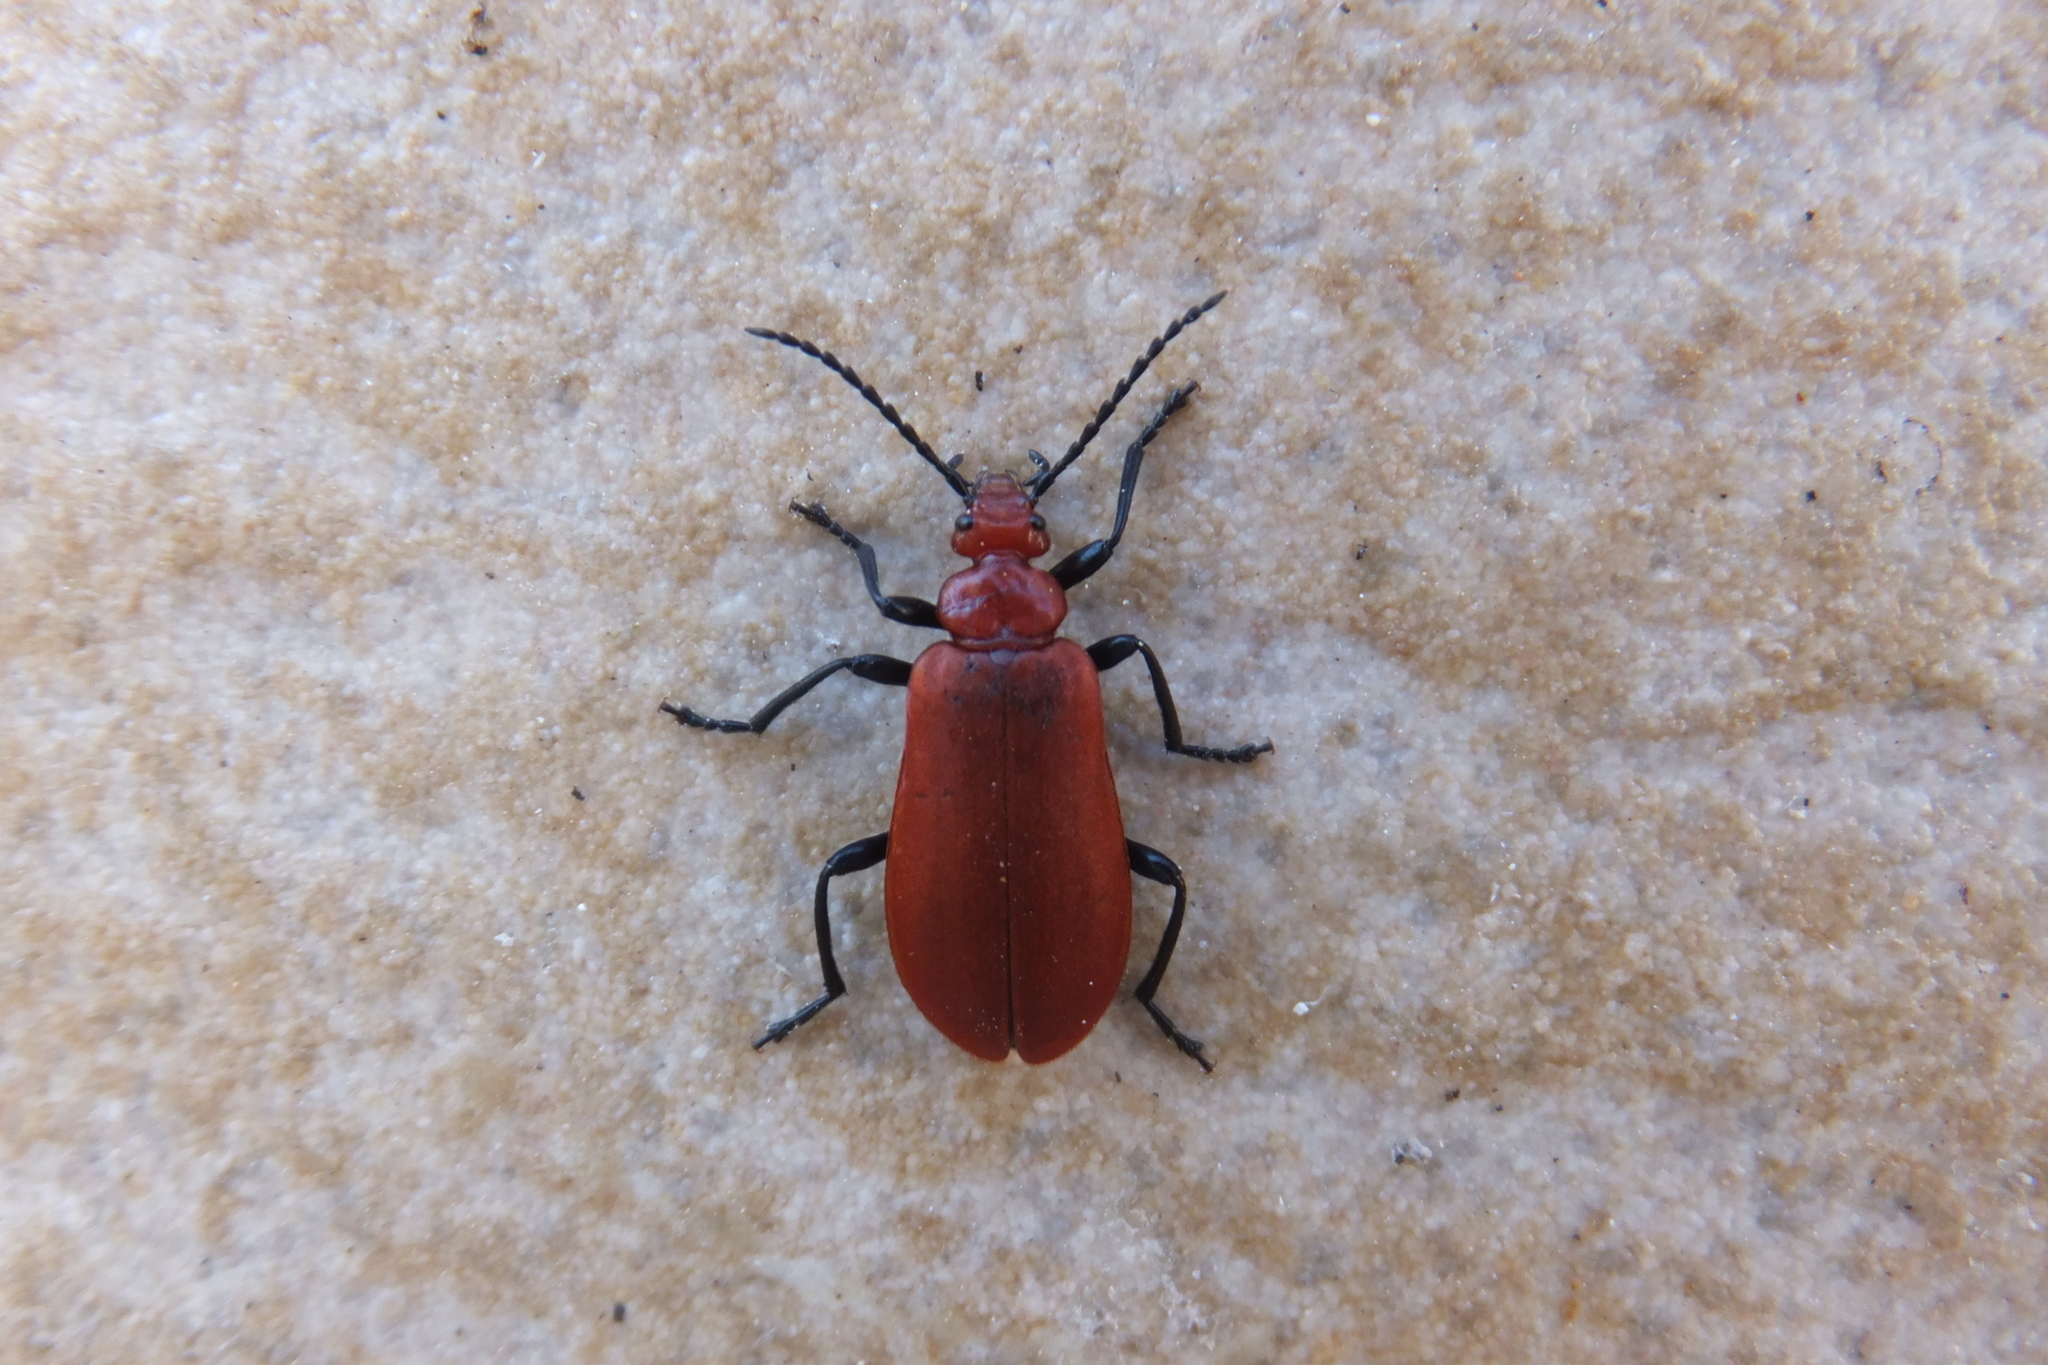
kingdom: Animalia
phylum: Arthropoda
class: Insecta
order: Coleoptera
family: Pyrochroidae
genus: Pyrochroa
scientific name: Pyrochroa serraticornis
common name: Red-headed cardinal beetle
